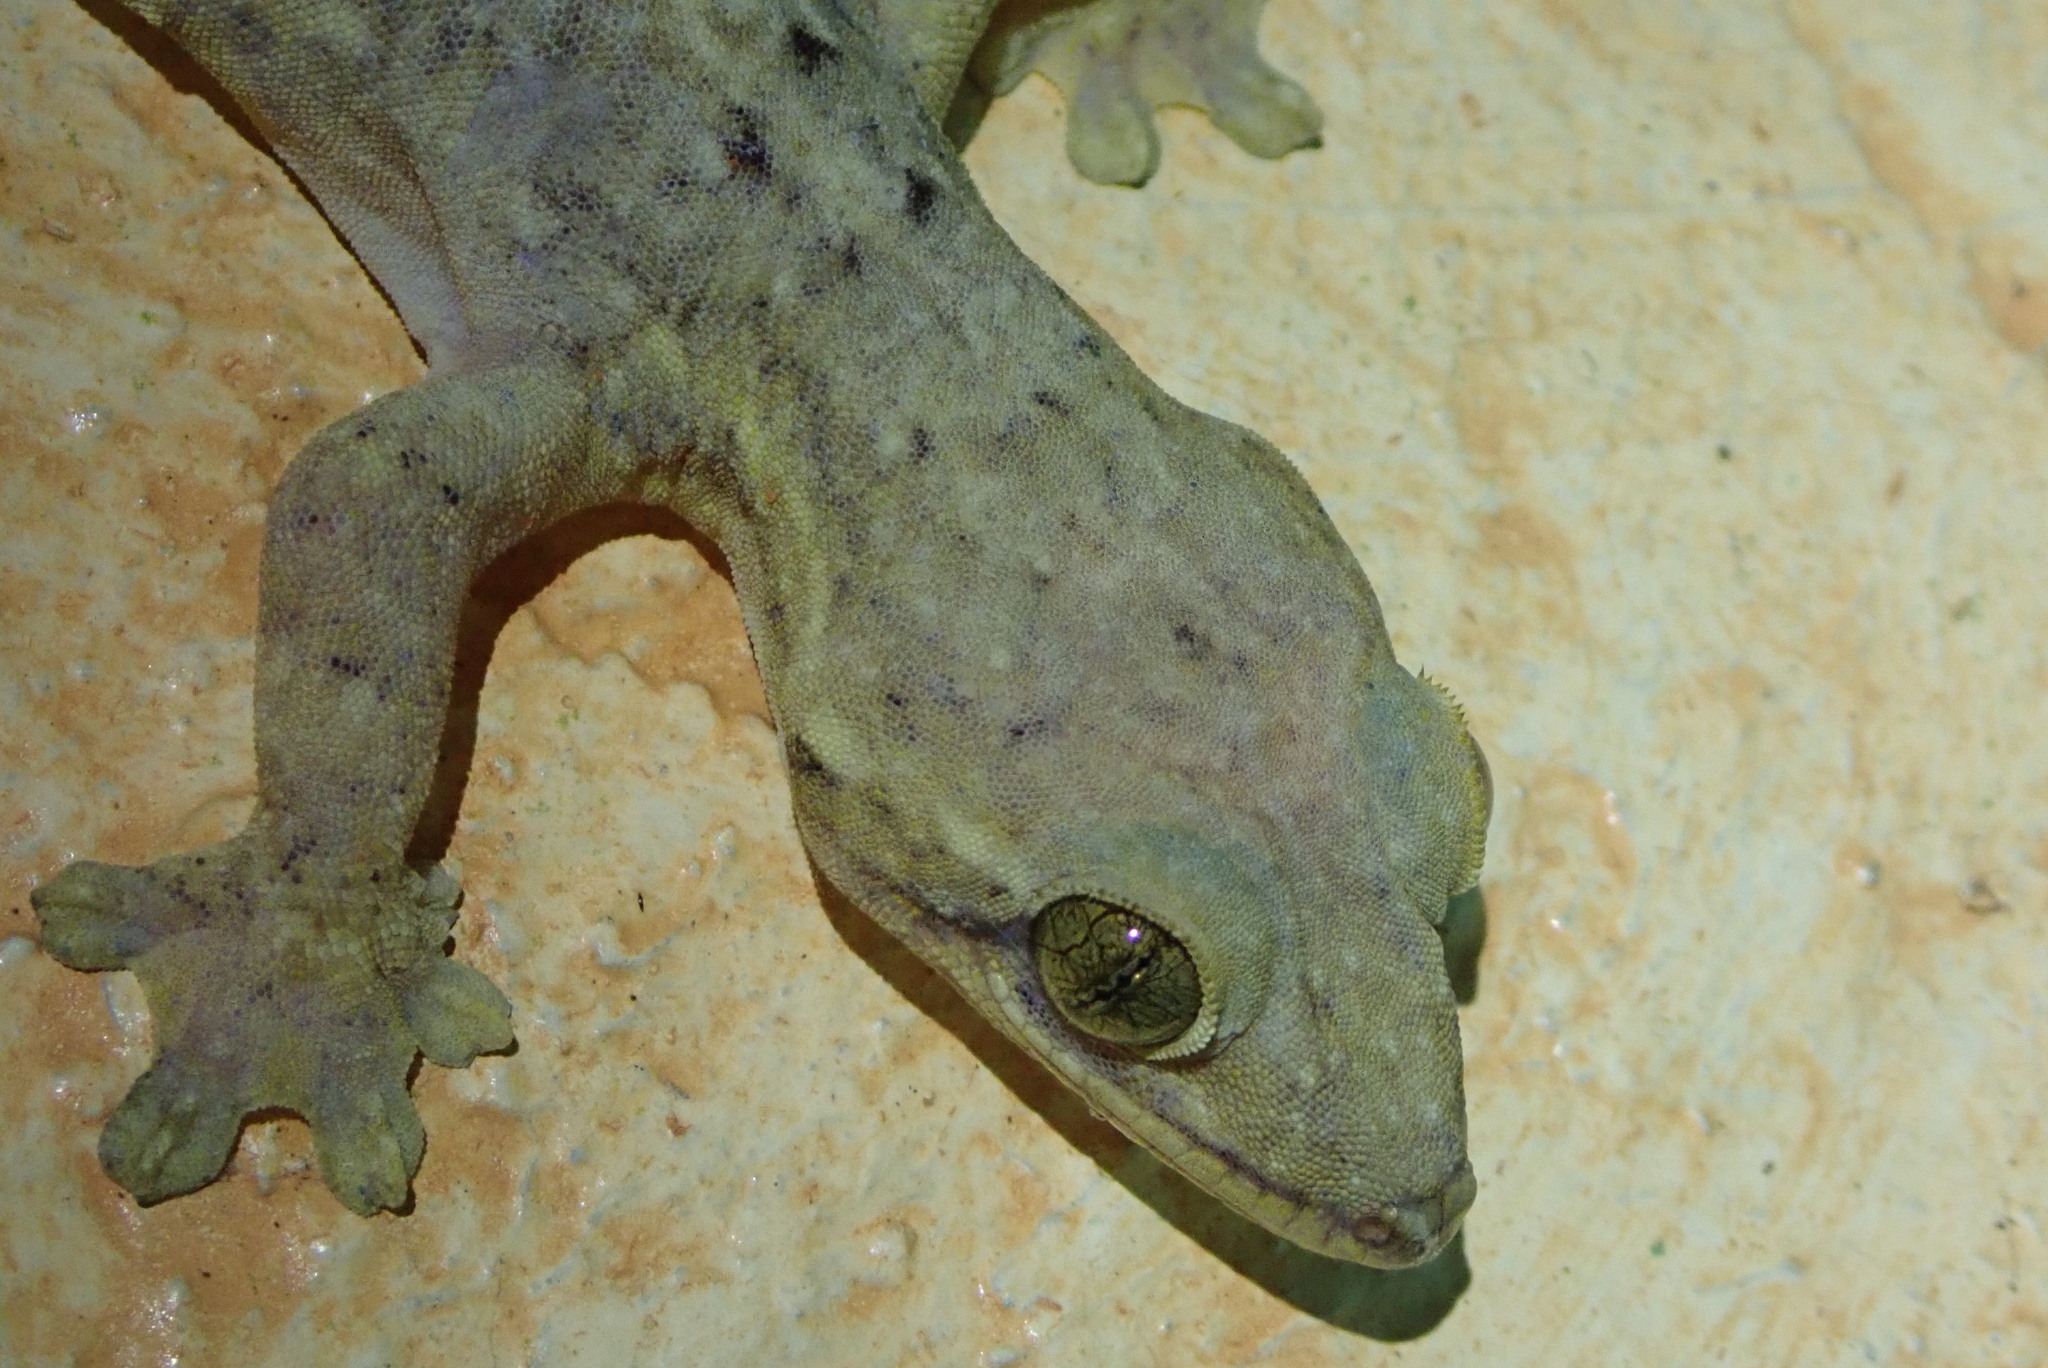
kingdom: Animalia
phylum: Chordata
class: Squamata
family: Phyllodactylidae
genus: Thecadactylus
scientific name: Thecadactylus rapicauda
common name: Turnip-tailed gecko
